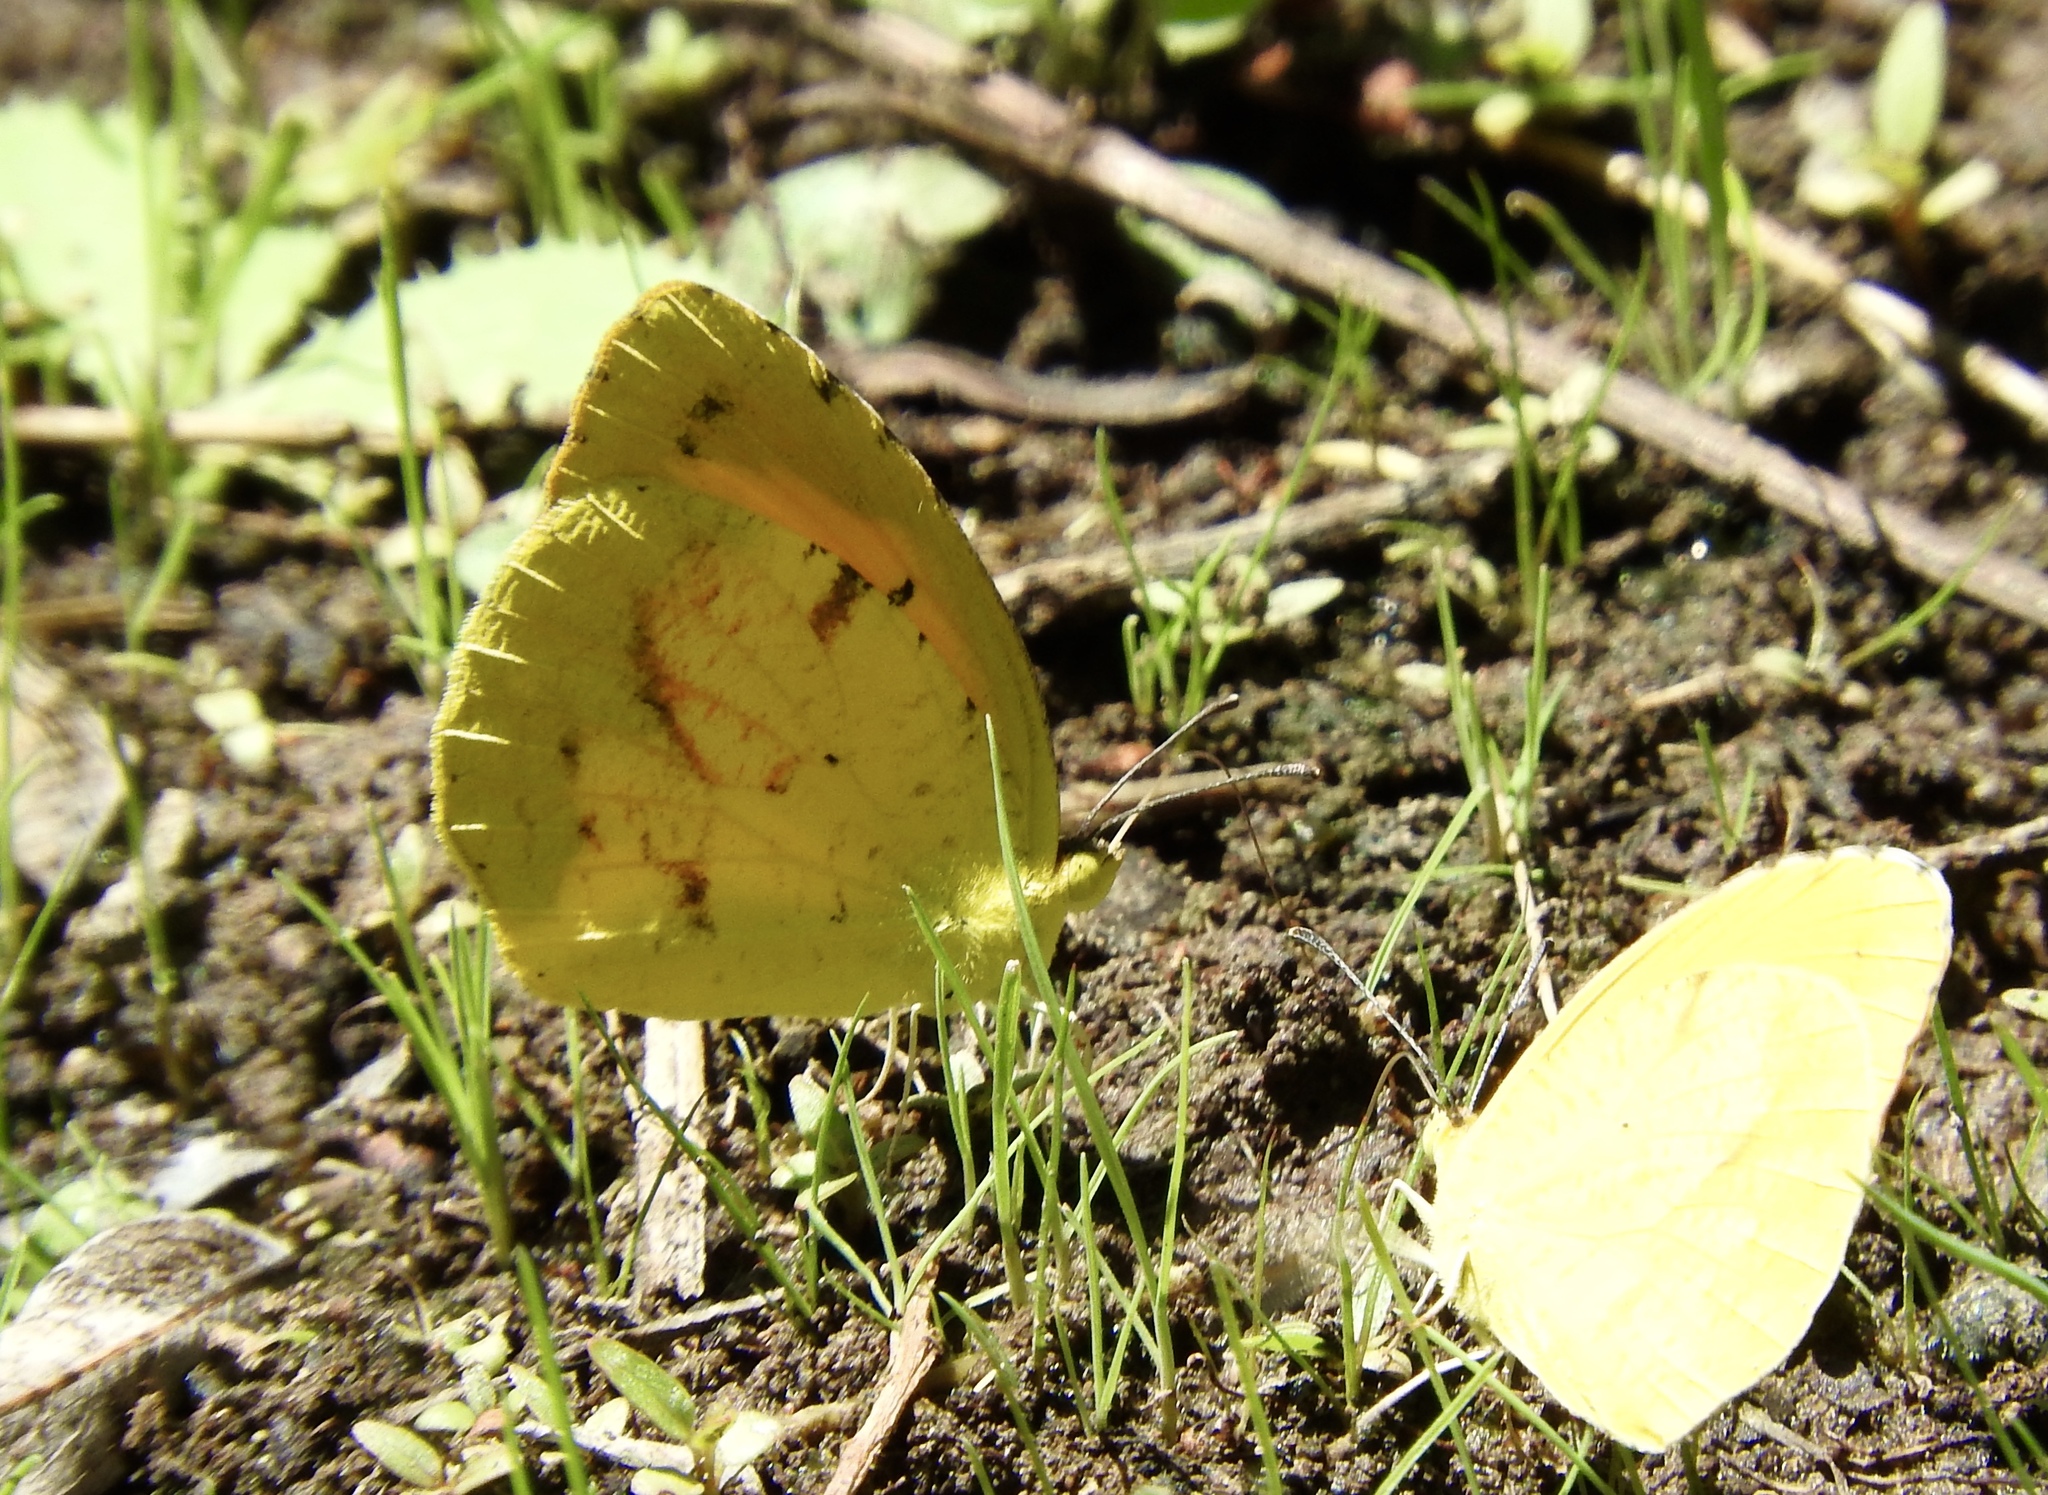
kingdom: Animalia
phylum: Arthropoda
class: Insecta
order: Lepidoptera
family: Pieridae
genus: Abaeis
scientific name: Abaeis nicippe
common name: Sleepy orange
